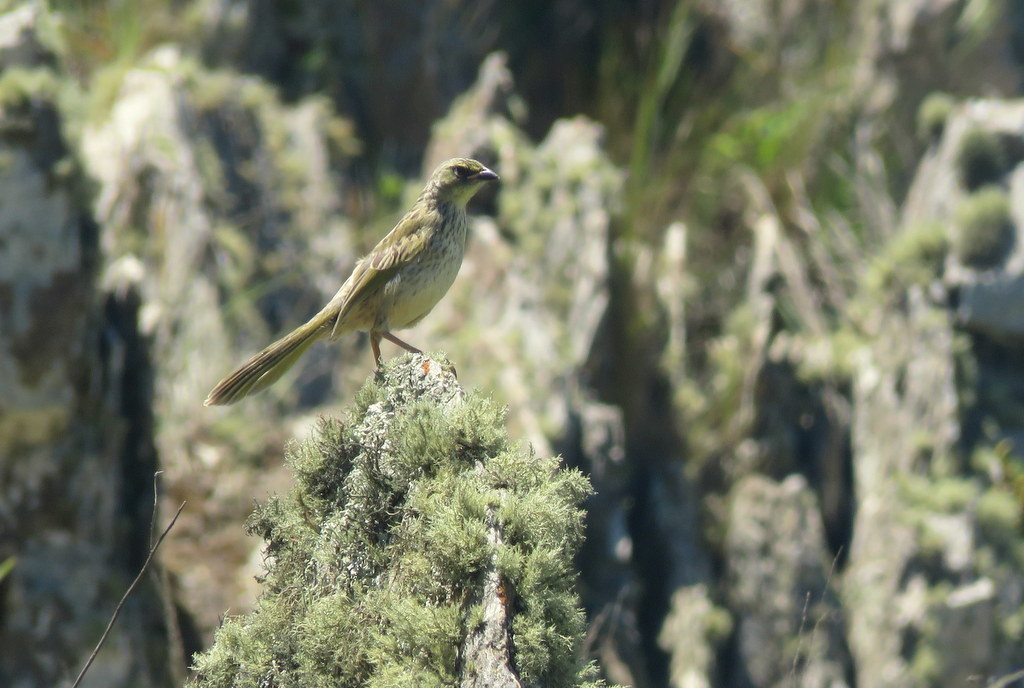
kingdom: Animalia
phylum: Chordata
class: Aves
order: Passeriformes
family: Thraupidae
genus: Embernagra
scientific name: Embernagra platensis
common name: Pampa finch
